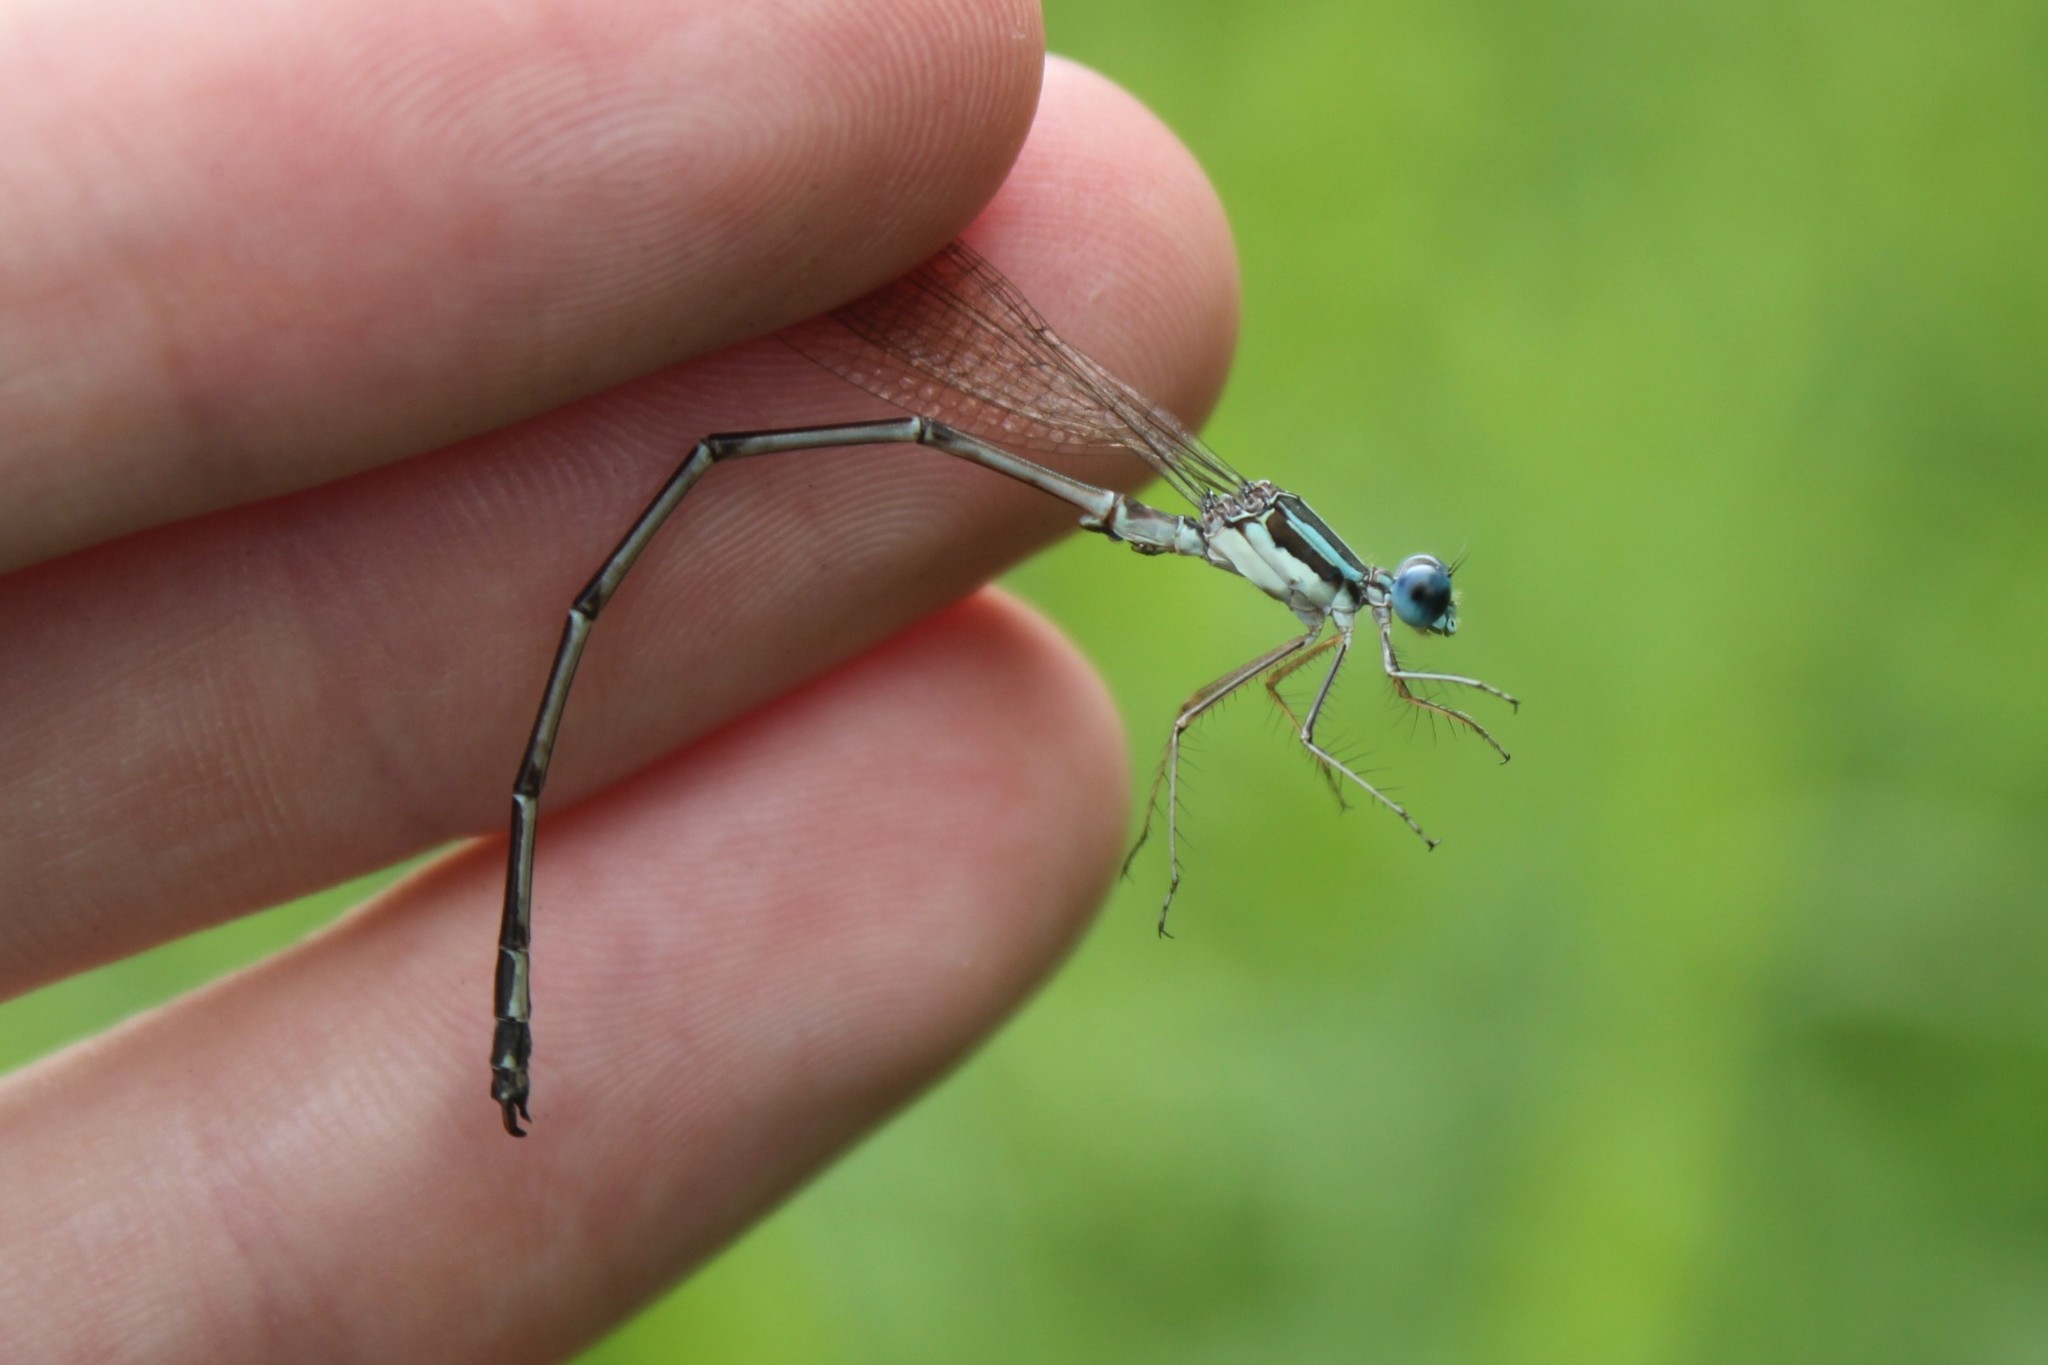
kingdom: Animalia
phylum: Arthropoda
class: Insecta
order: Odonata
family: Lestidae
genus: Lestes
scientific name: Lestes rectangularis
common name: Slender spreadwing
